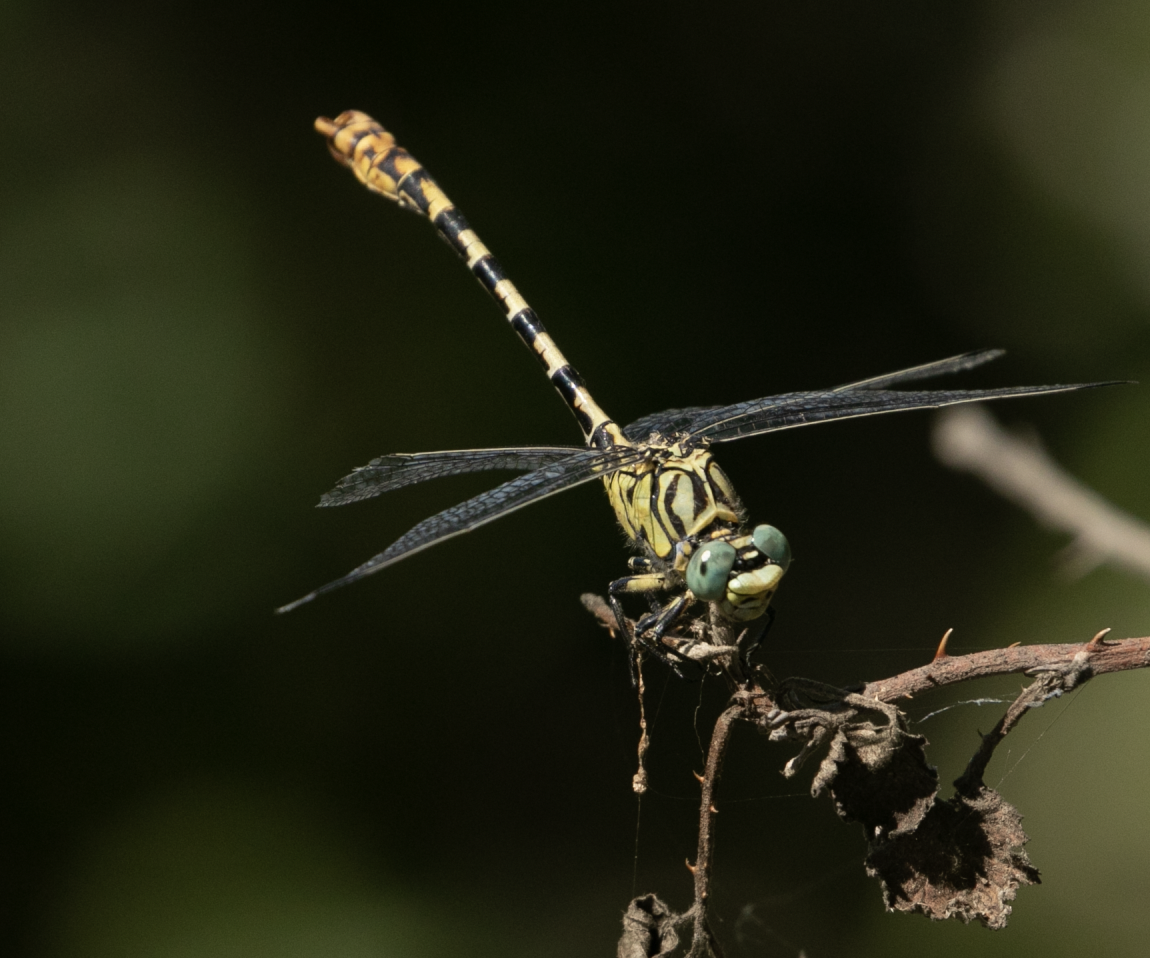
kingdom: Animalia
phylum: Arthropoda
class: Insecta
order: Odonata
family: Gomphidae
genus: Onychogomphus
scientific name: Onychogomphus forcipatus
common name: Small pincertail
